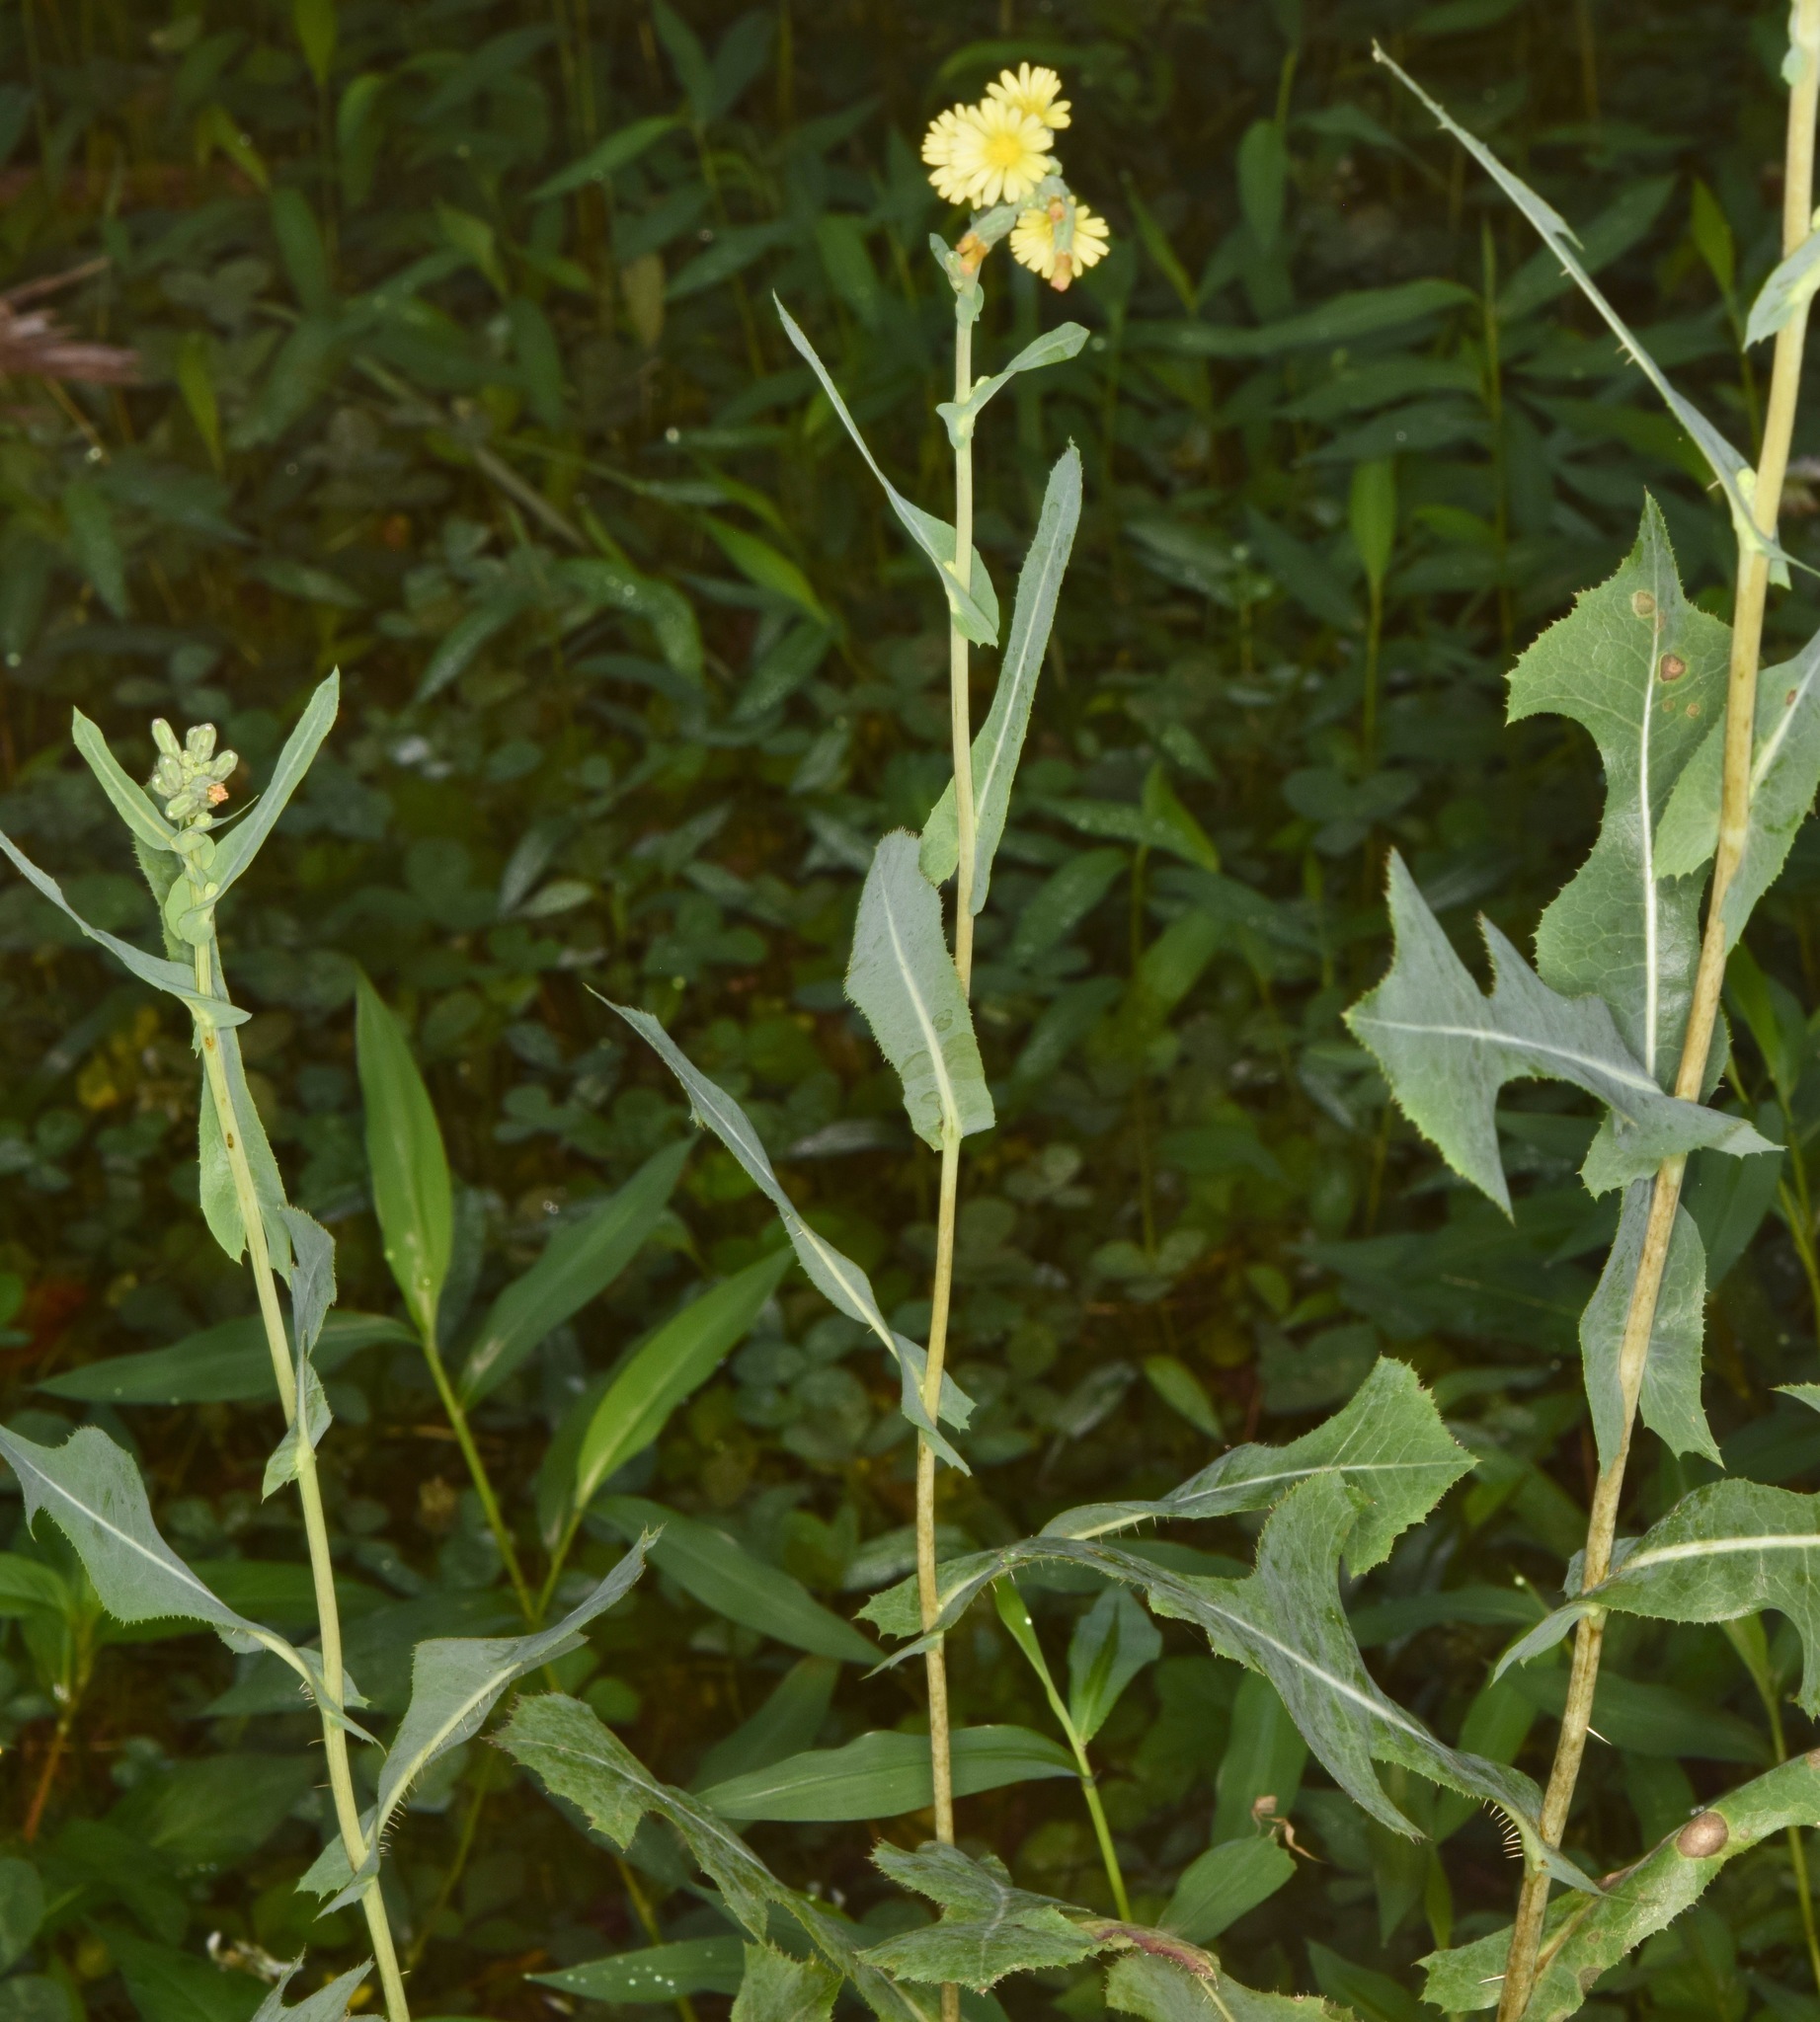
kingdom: Plantae
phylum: Tracheophyta
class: Magnoliopsida
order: Asterales
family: Asteraceae
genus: Lactuca
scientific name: Lactuca serriola
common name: Prickly lettuce
